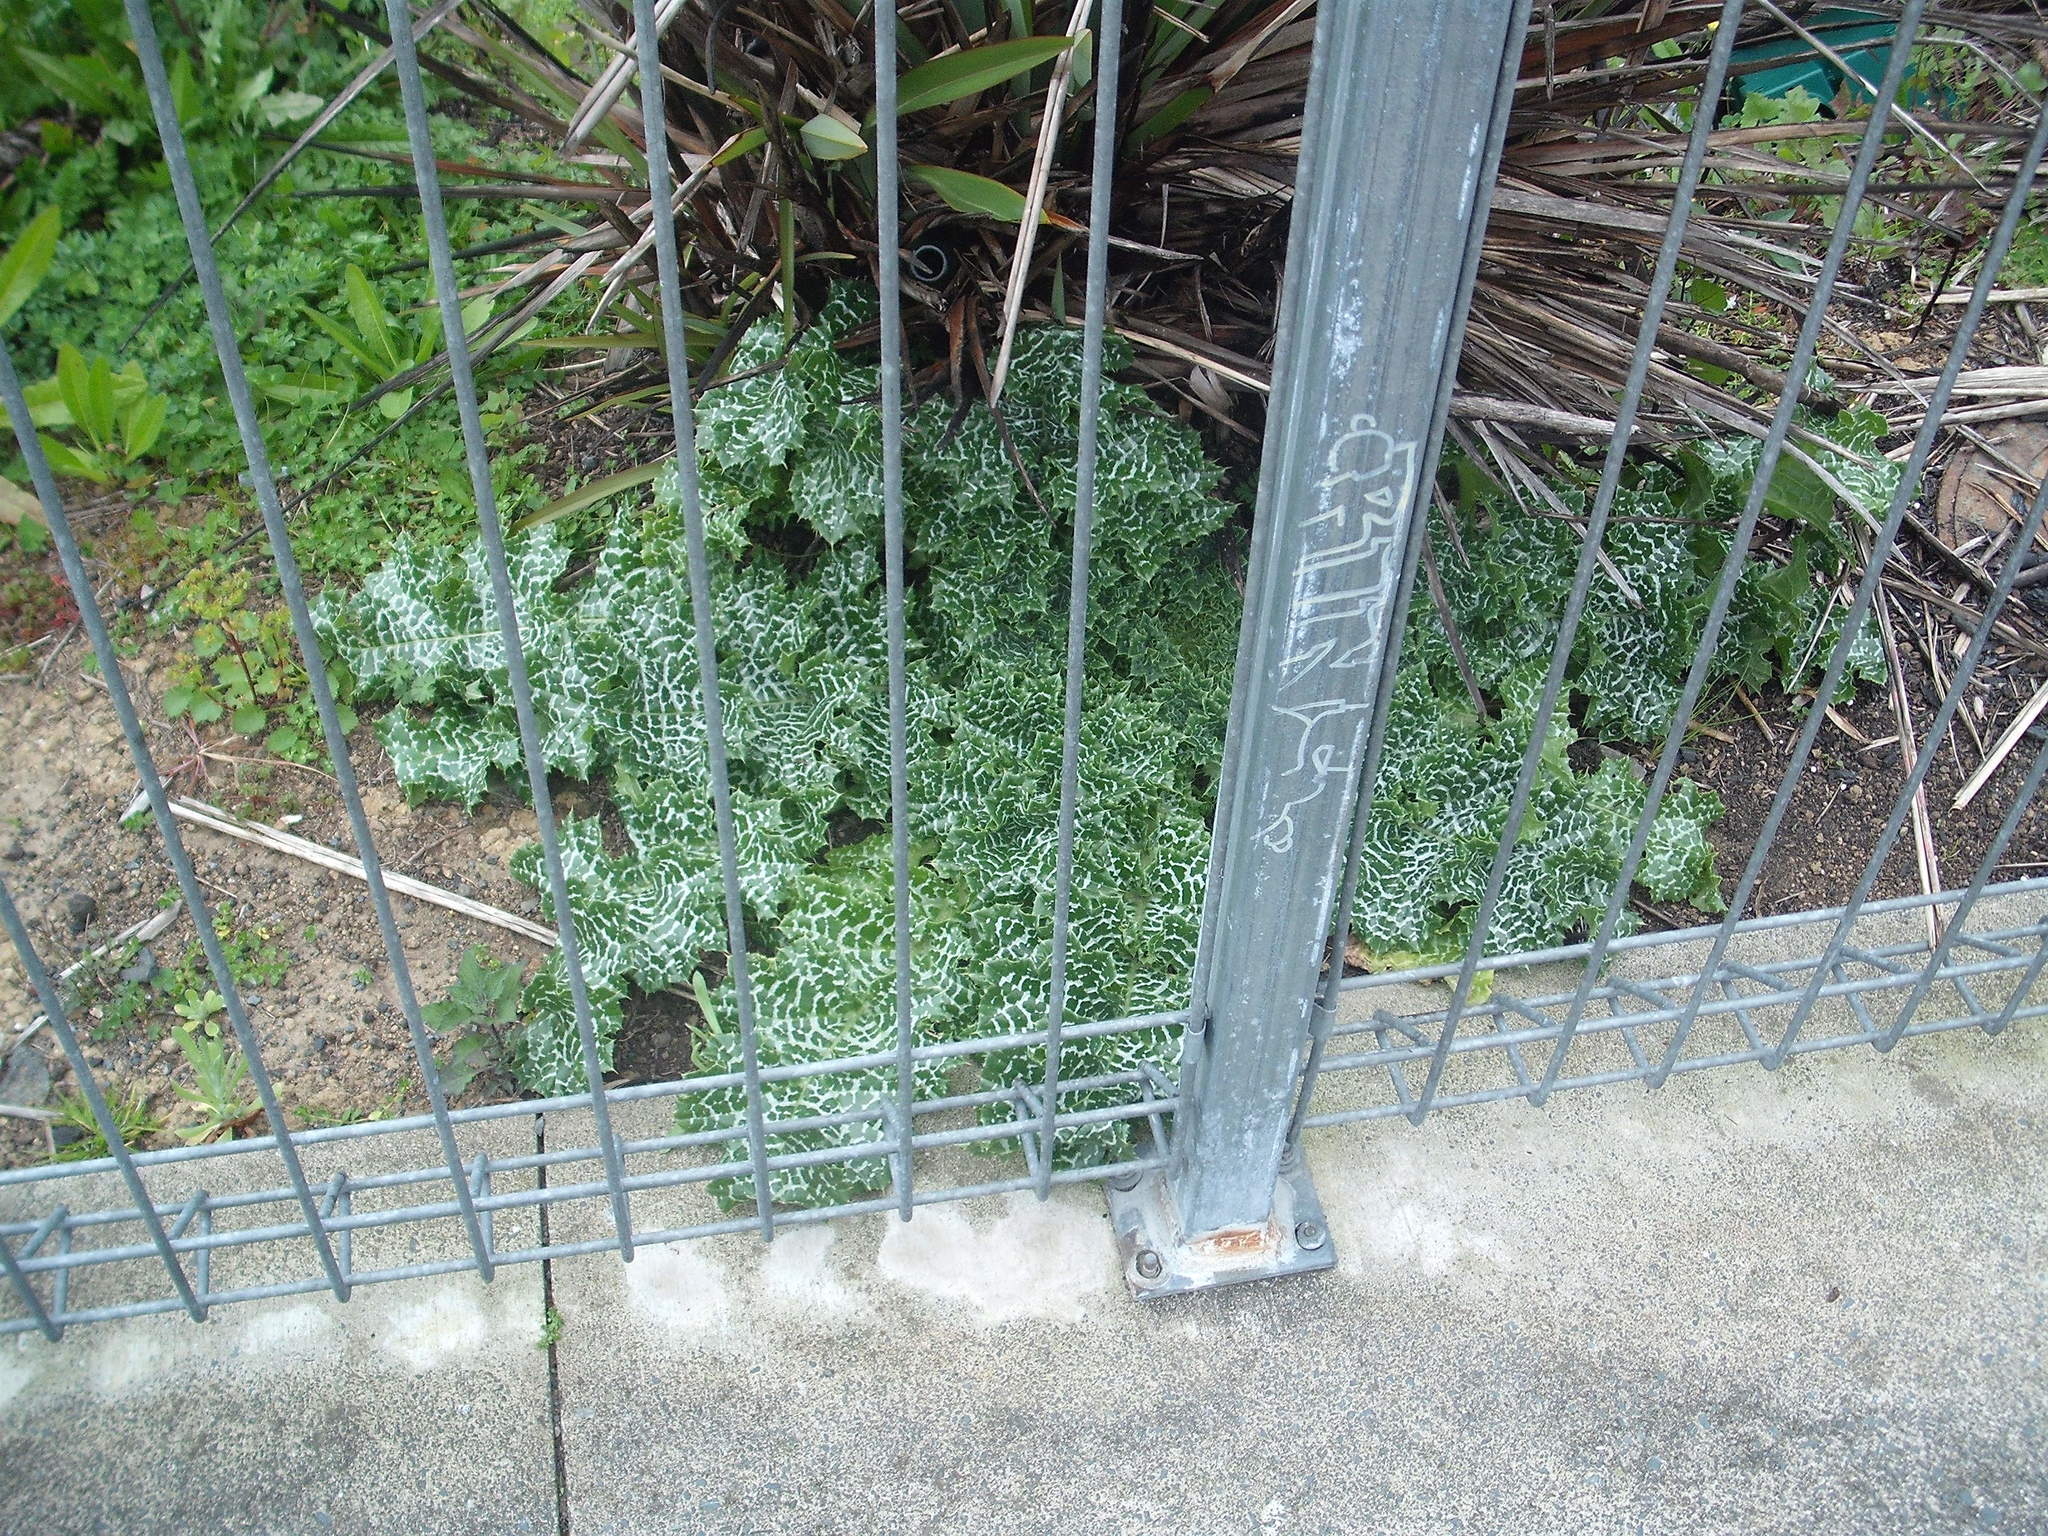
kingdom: Plantae
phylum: Tracheophyta
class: Magnoliopsida
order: Asterales
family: Asteraceae
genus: Silybum
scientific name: Silybum marianum
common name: Milk thistle
